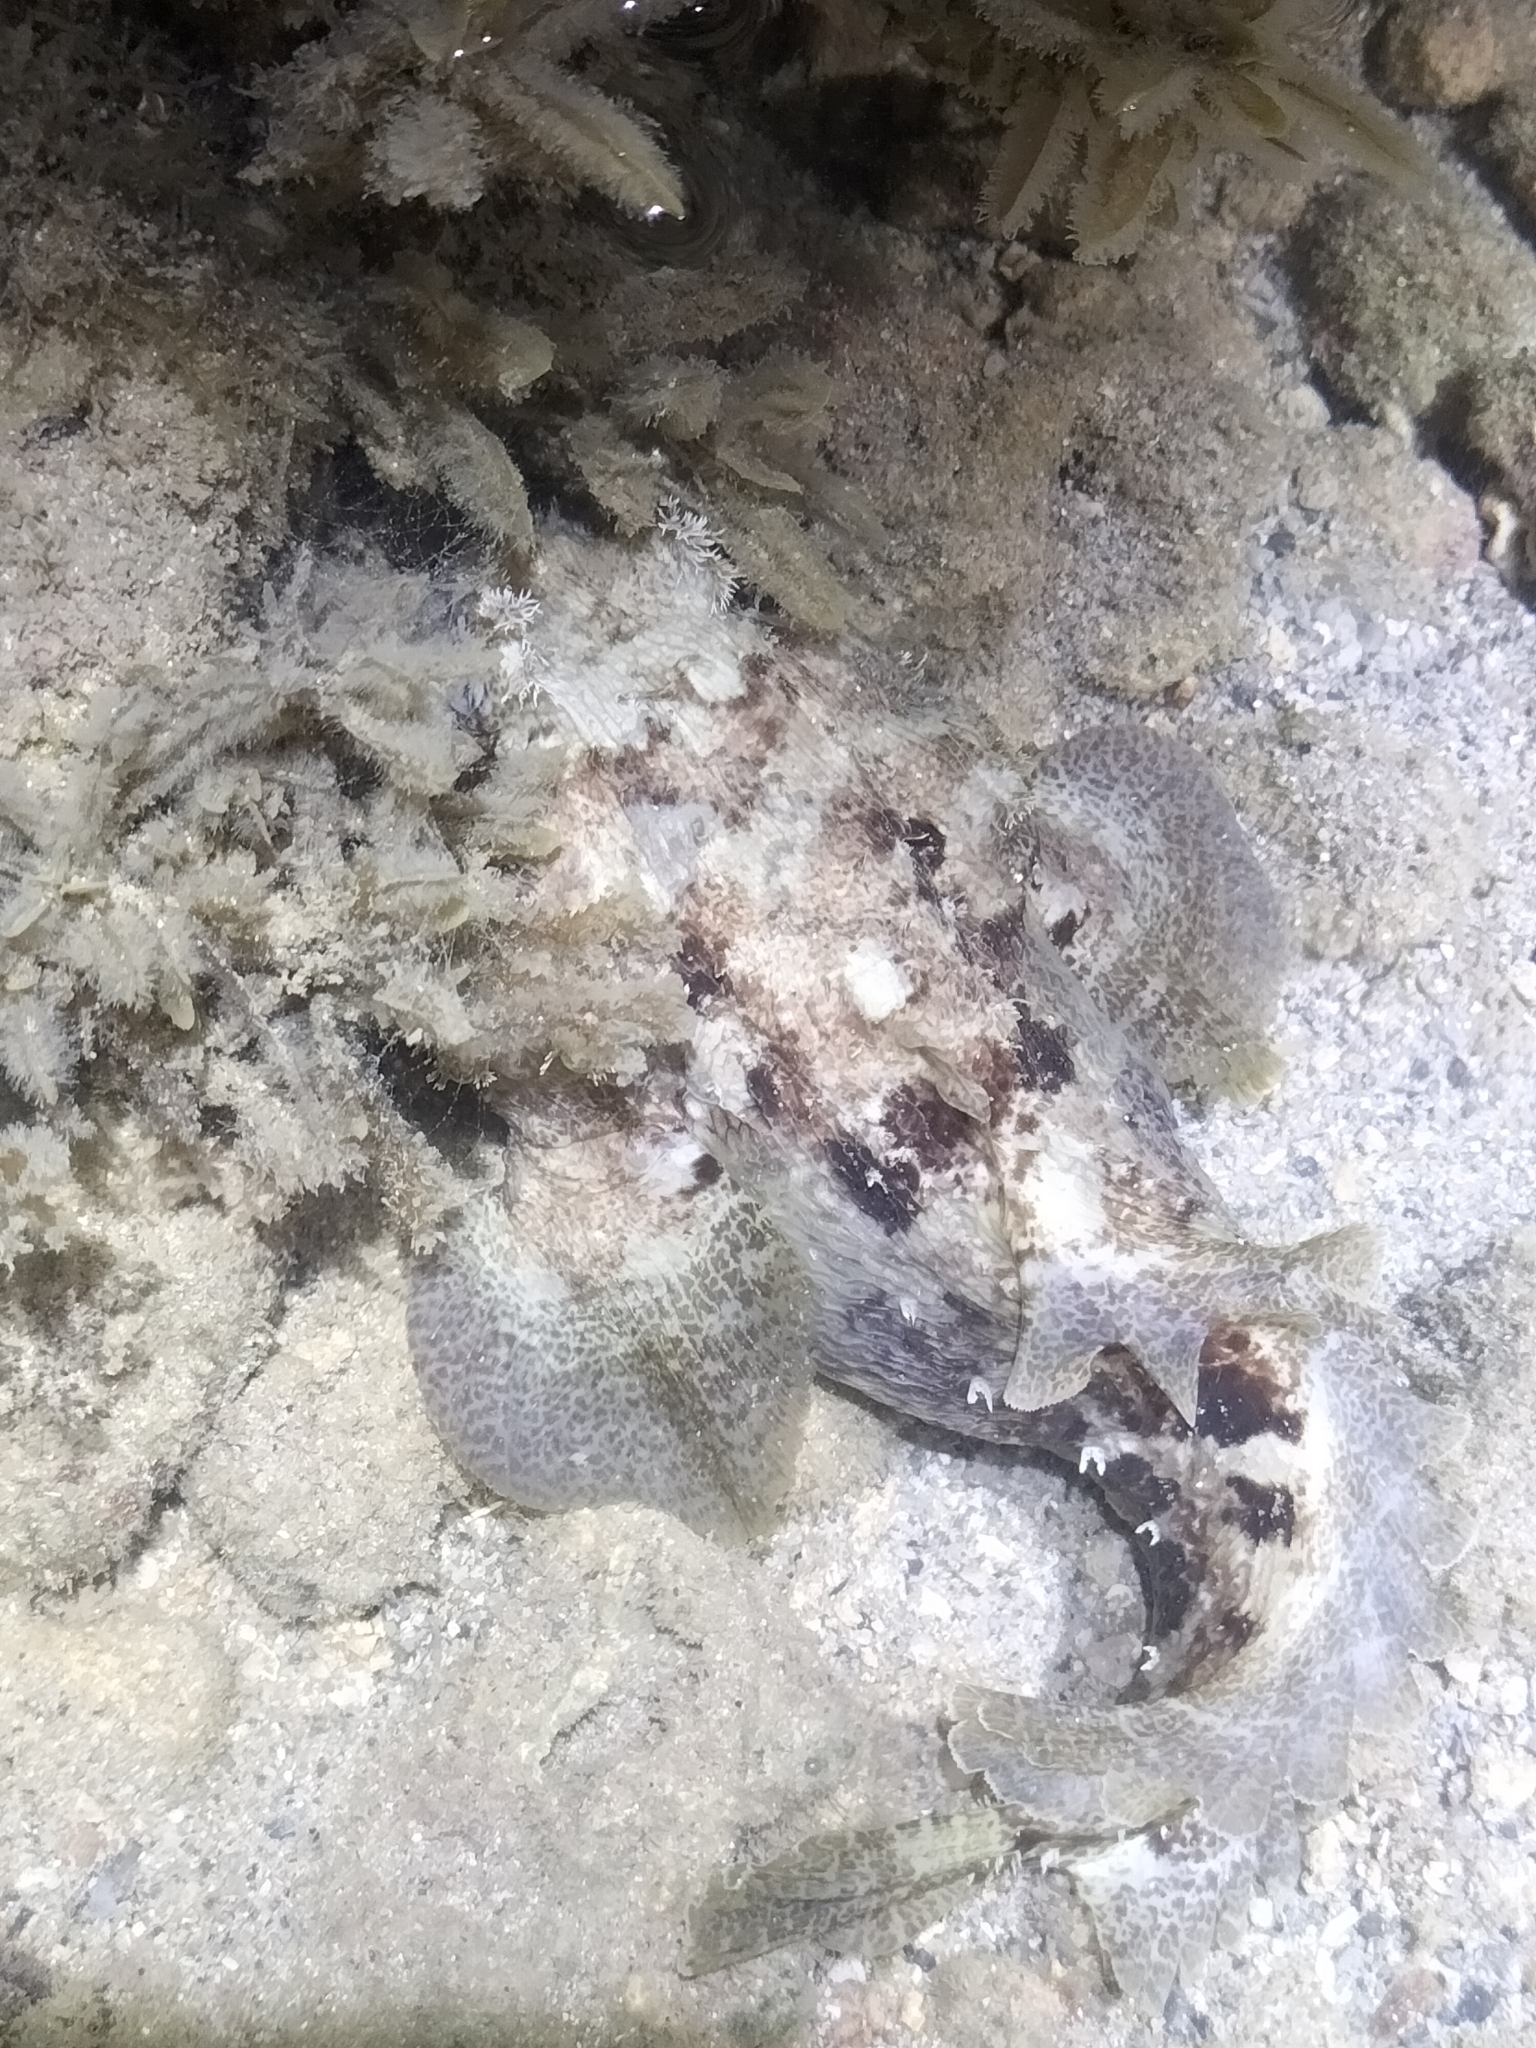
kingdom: Animalia
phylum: Chordata
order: Batrachoidiformes
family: Batrachoididae
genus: Halophryne
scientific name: Halophryne diemensis
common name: Banded frogfish
